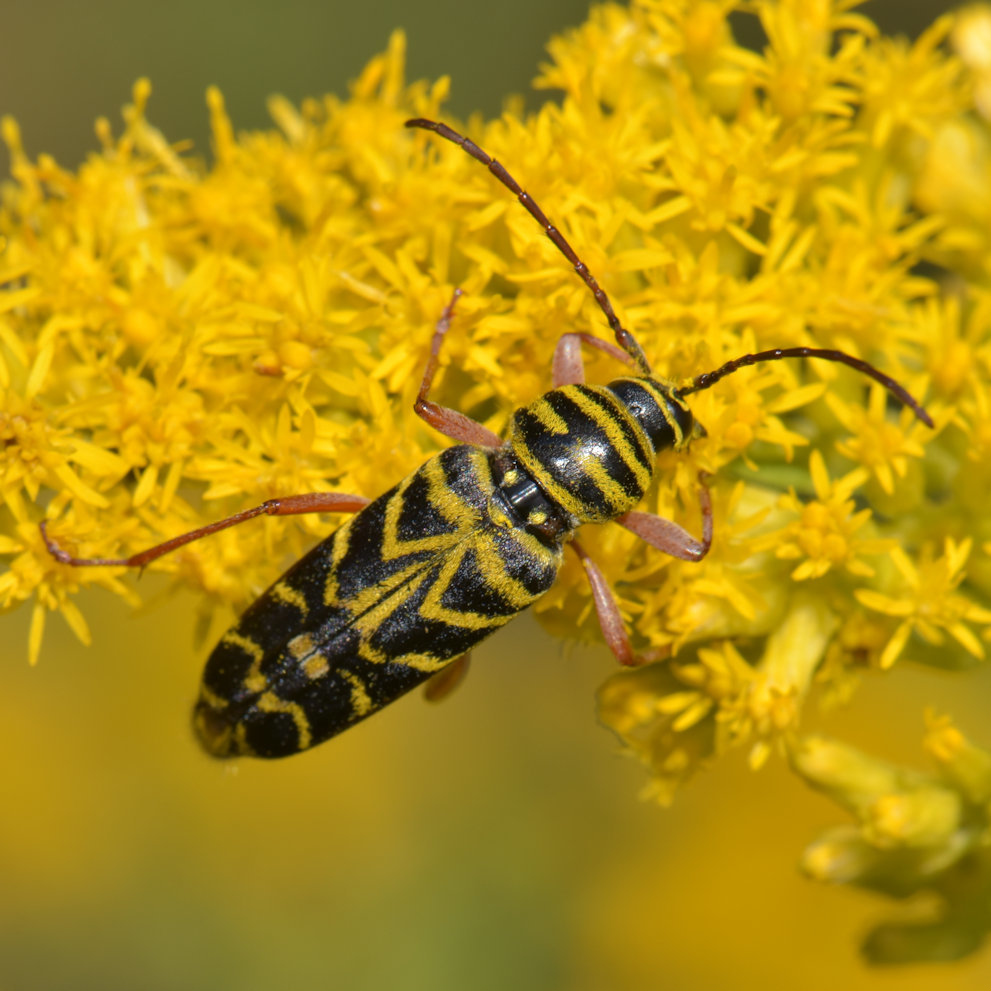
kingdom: Animalia
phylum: Arthropoda
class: Insecta
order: Coleoptera
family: Cerambycidae
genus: Megacyllene
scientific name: Megacyllene robiniae
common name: Locust borer
